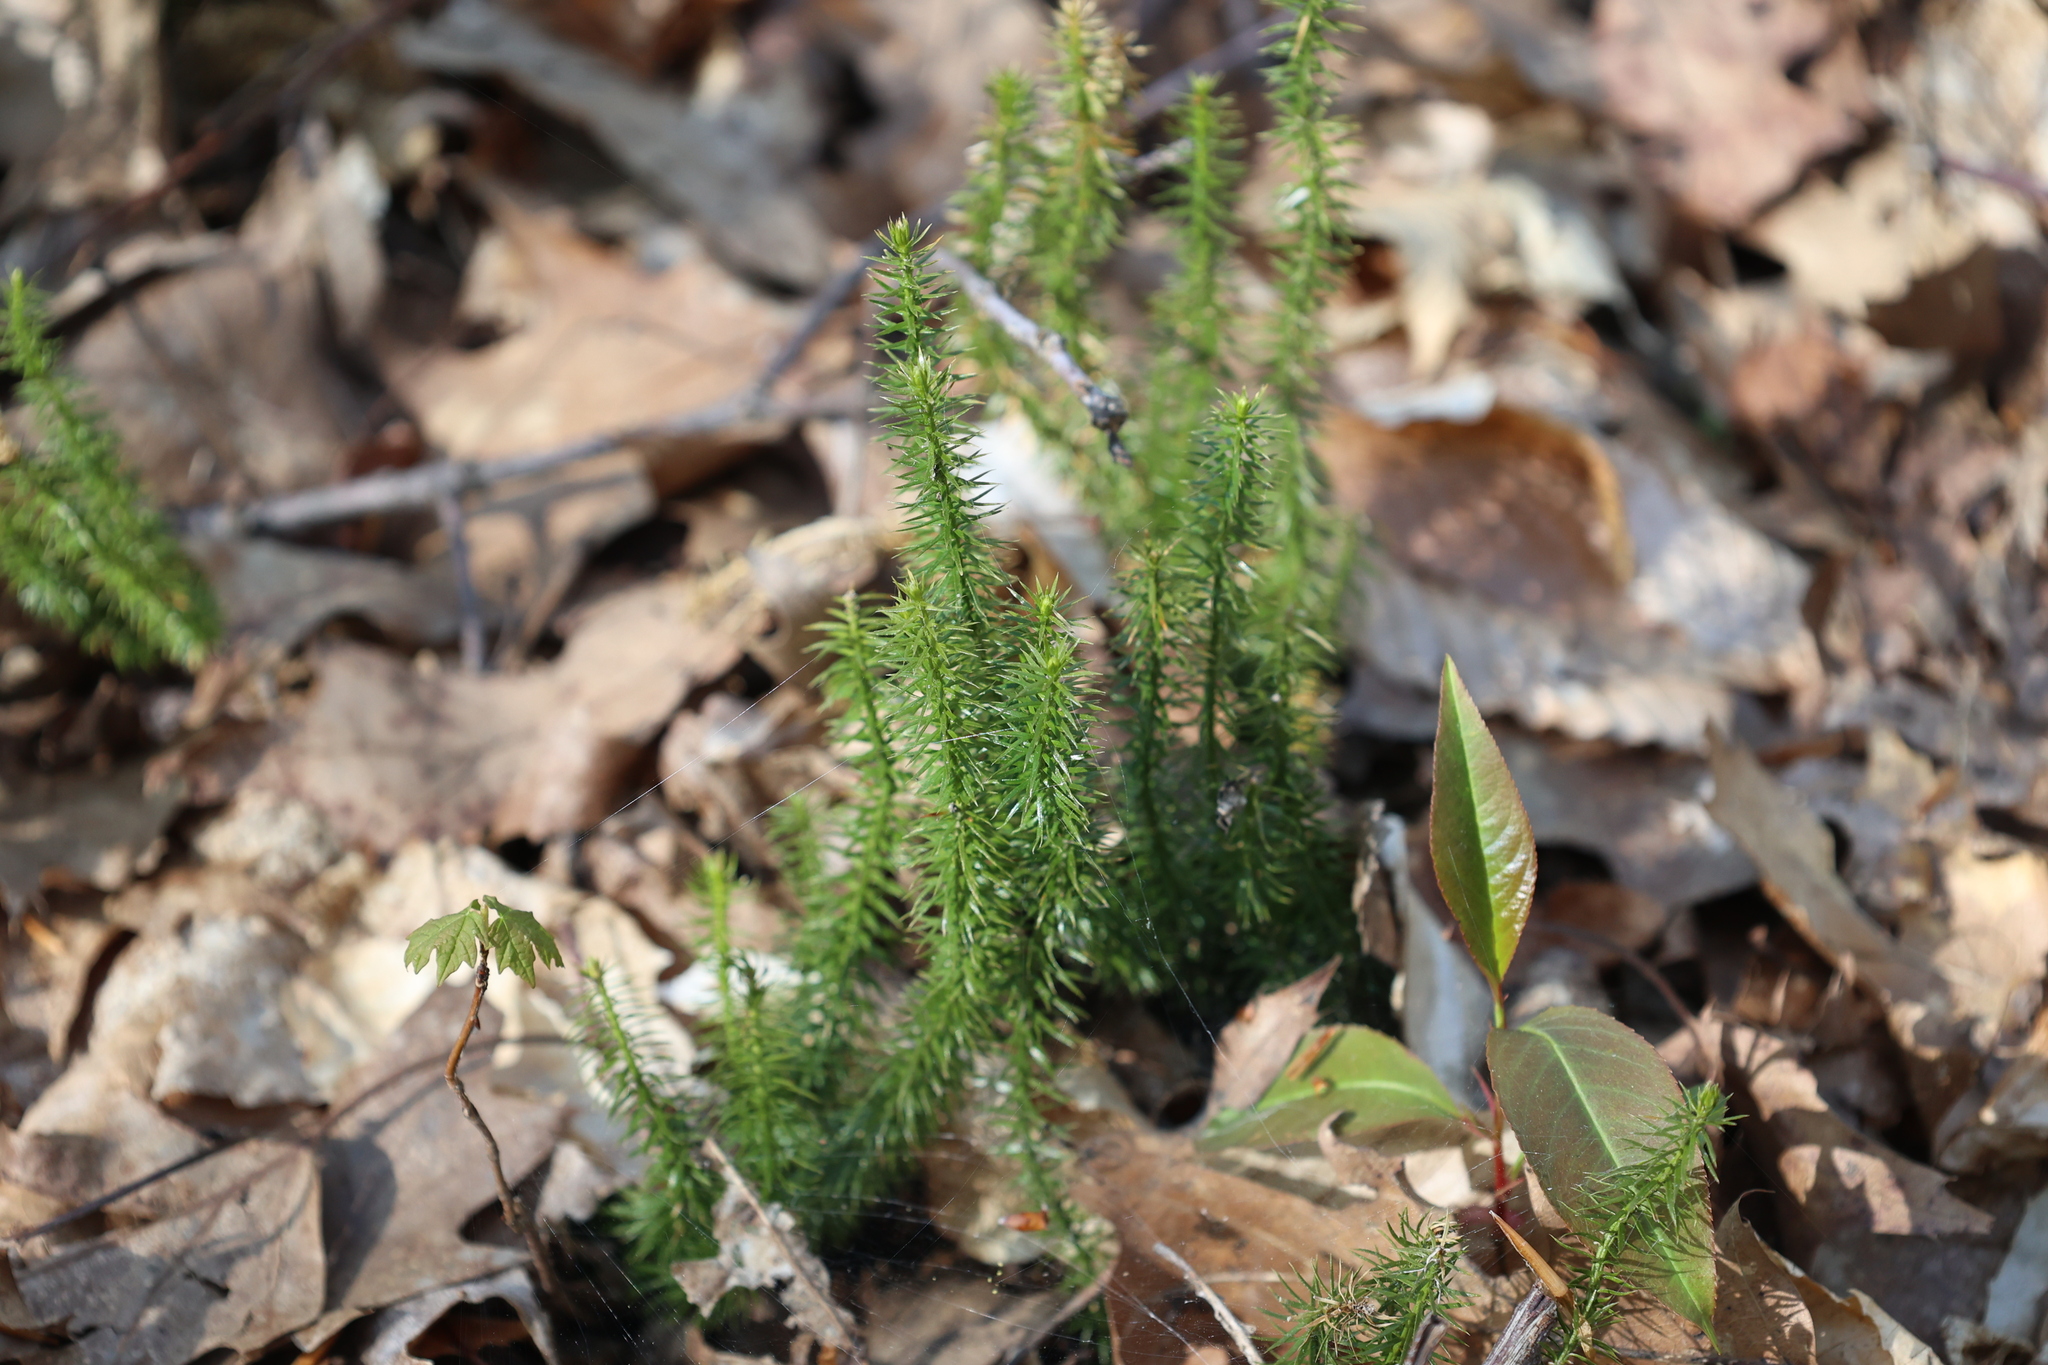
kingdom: Plantae
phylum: Tracheophyta
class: Lycopodiopsida
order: Lycopodiales
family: Lycopodiaceae
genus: Huperzia
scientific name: Huperzia lucidula
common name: Shining clubmoss
